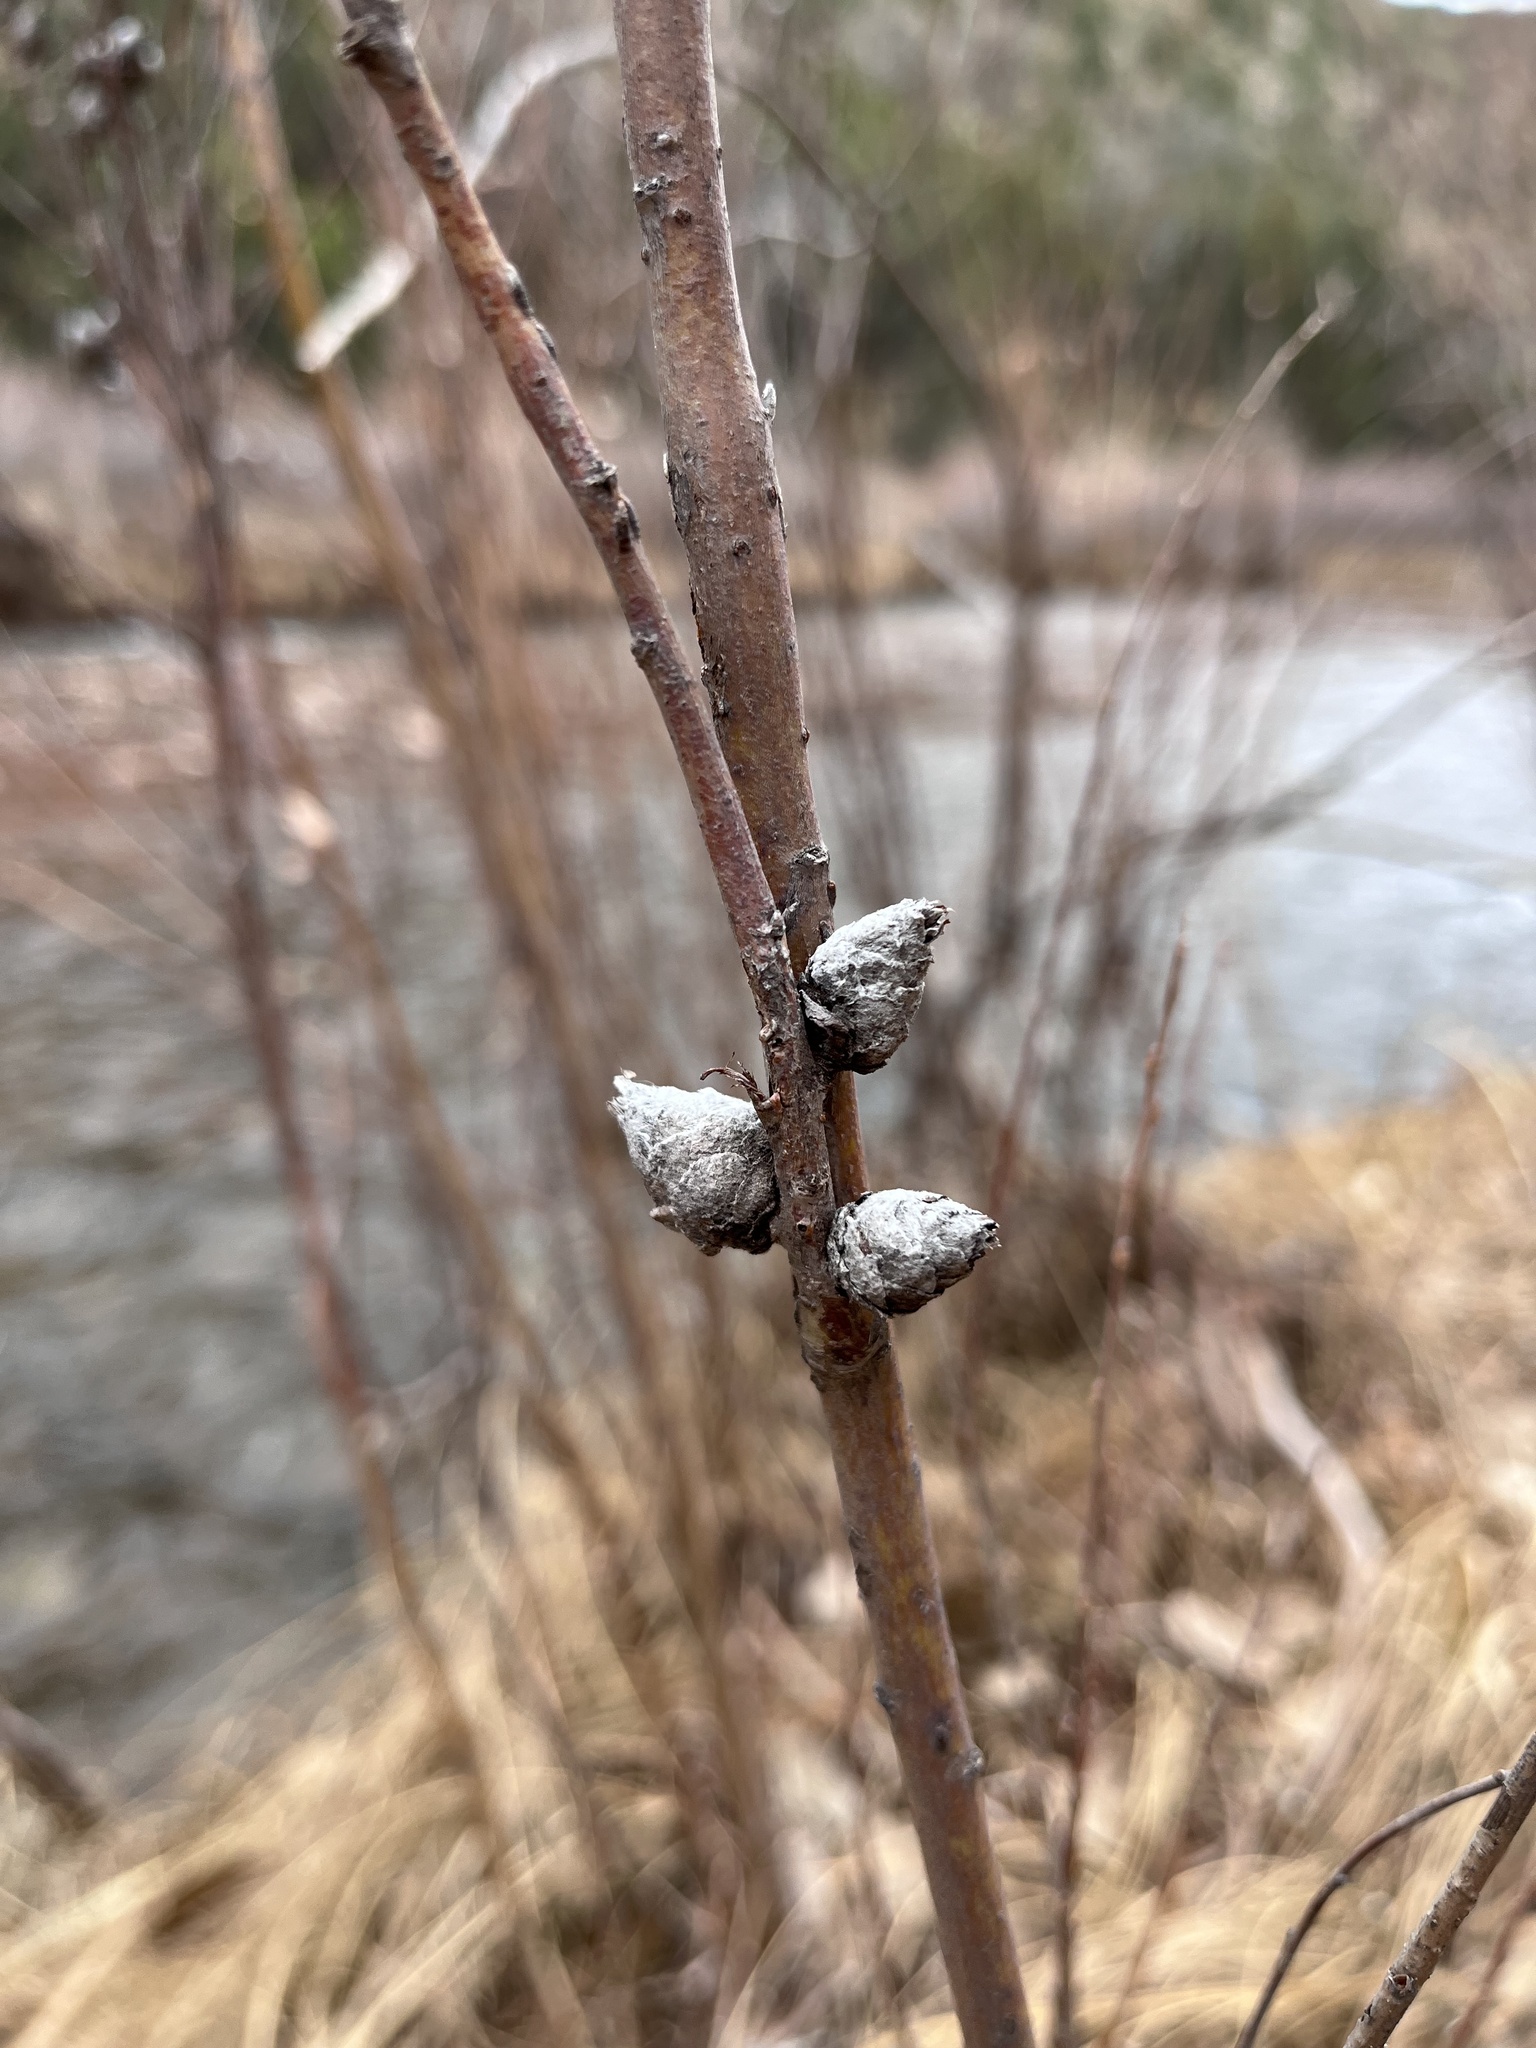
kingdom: Animalia
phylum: Arthropoda
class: Insecta
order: Diptera
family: Cecidomyiidae
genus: Rabdophaga
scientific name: Rabdophaga strobiloides
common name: Willow pinecone gall midge
